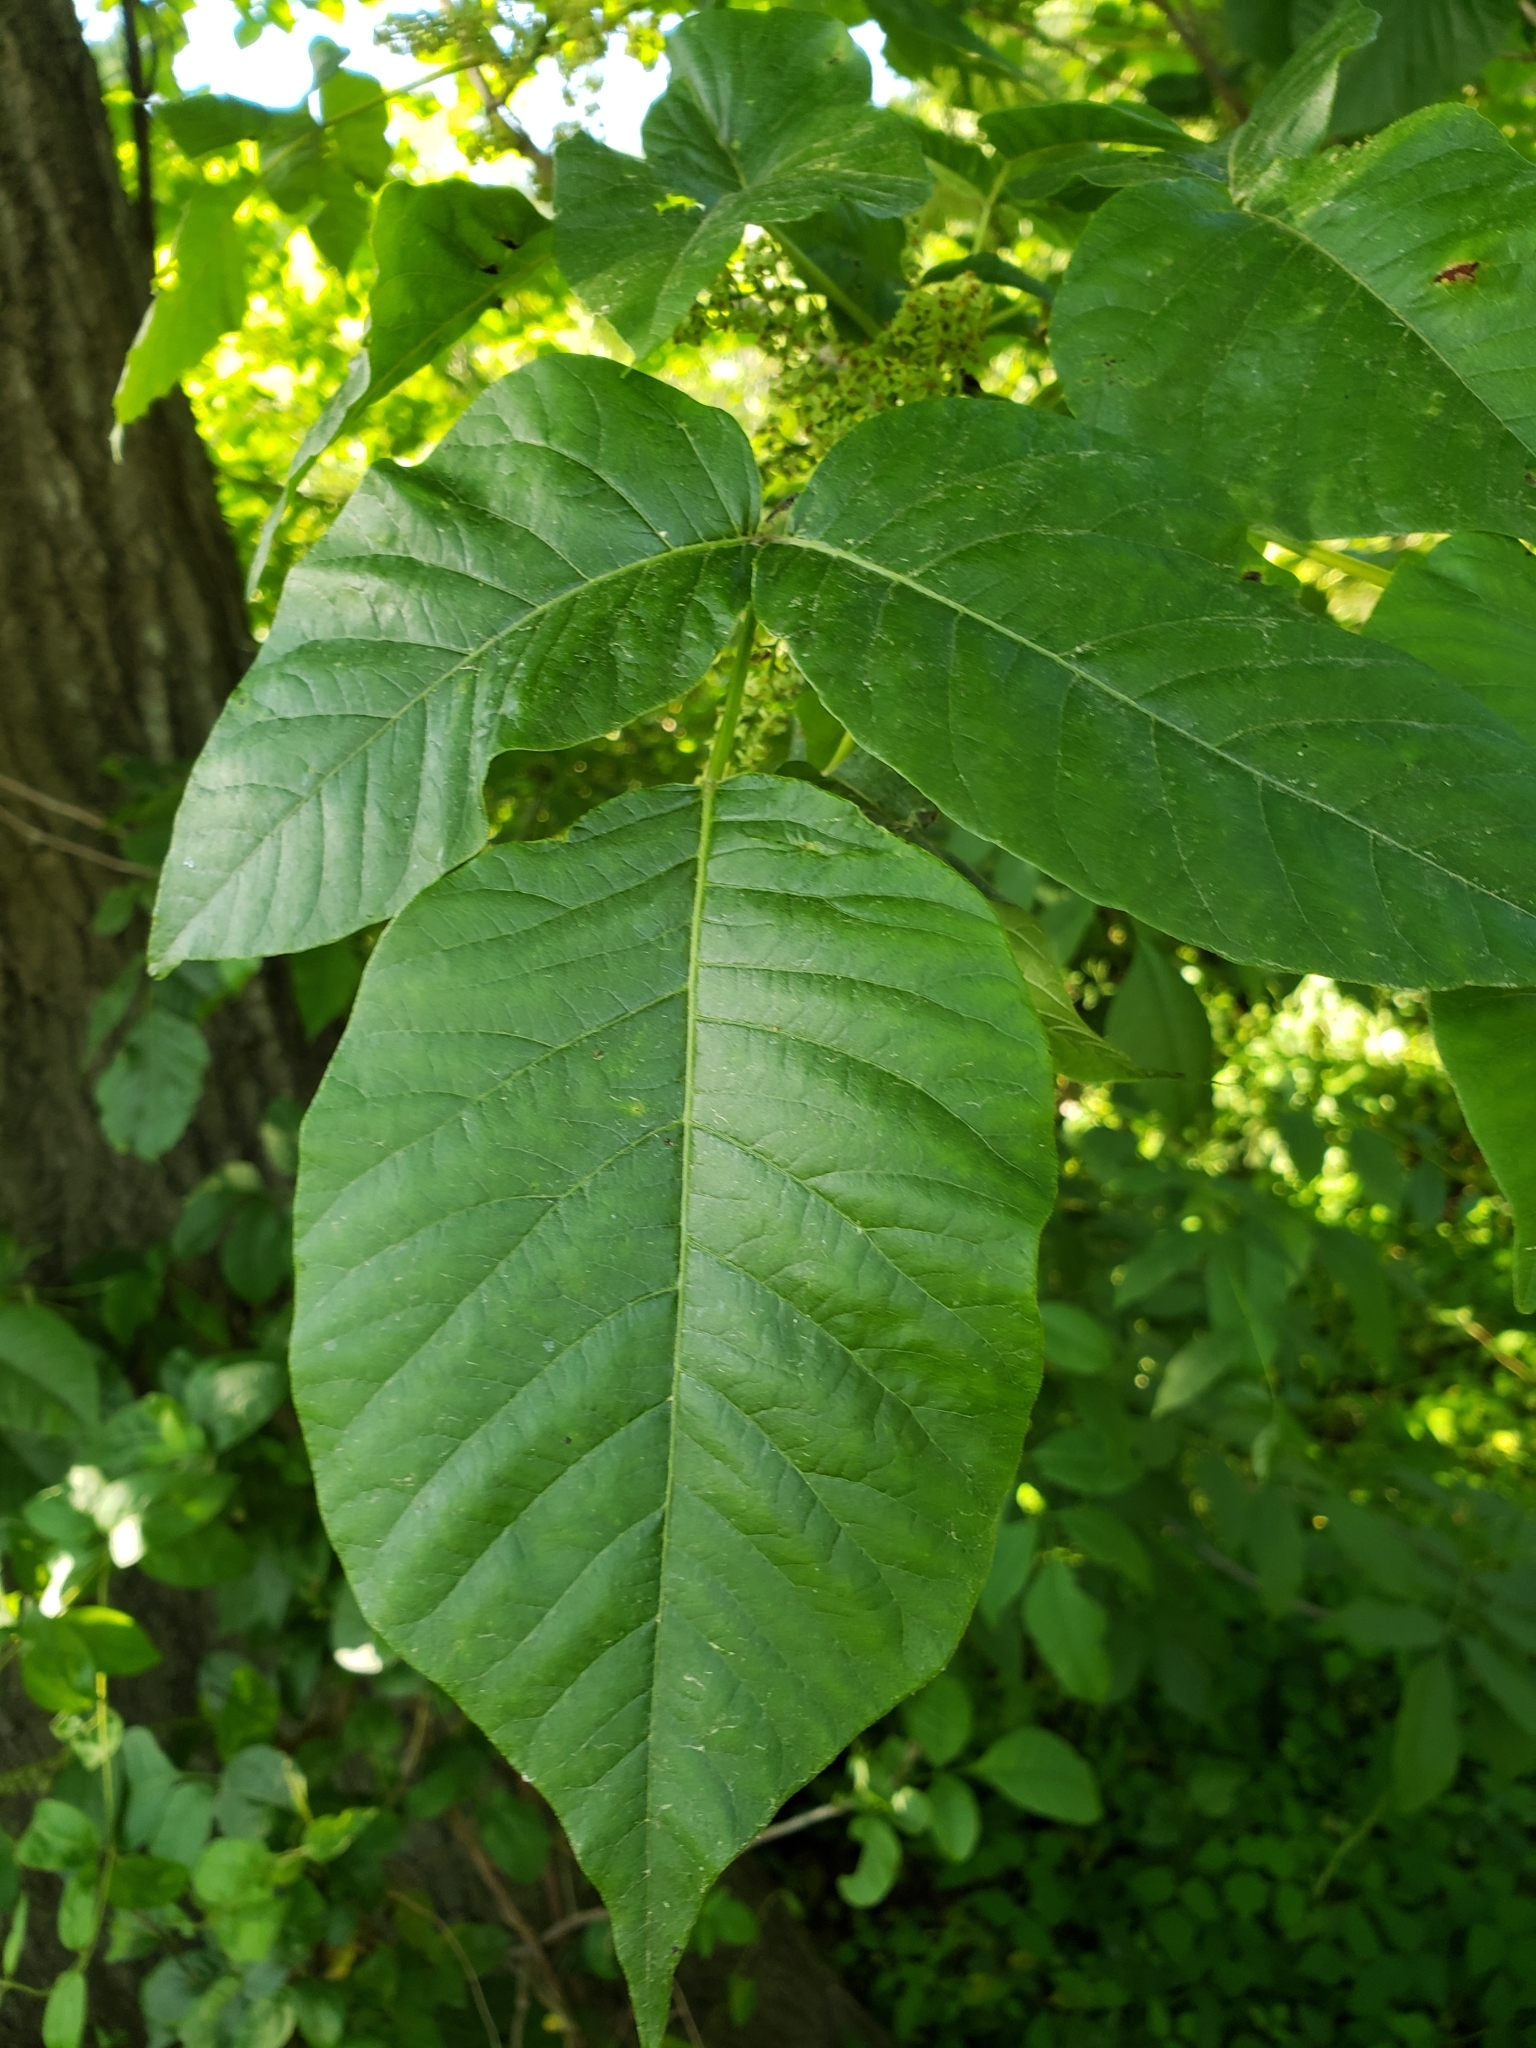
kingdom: Plantae
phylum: Tracheophyta
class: Magnoliopsida
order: Sapindales
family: Anacardiaceae
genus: Toxicodendron
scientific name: Toxicodendron radicans
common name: Poison ivy
